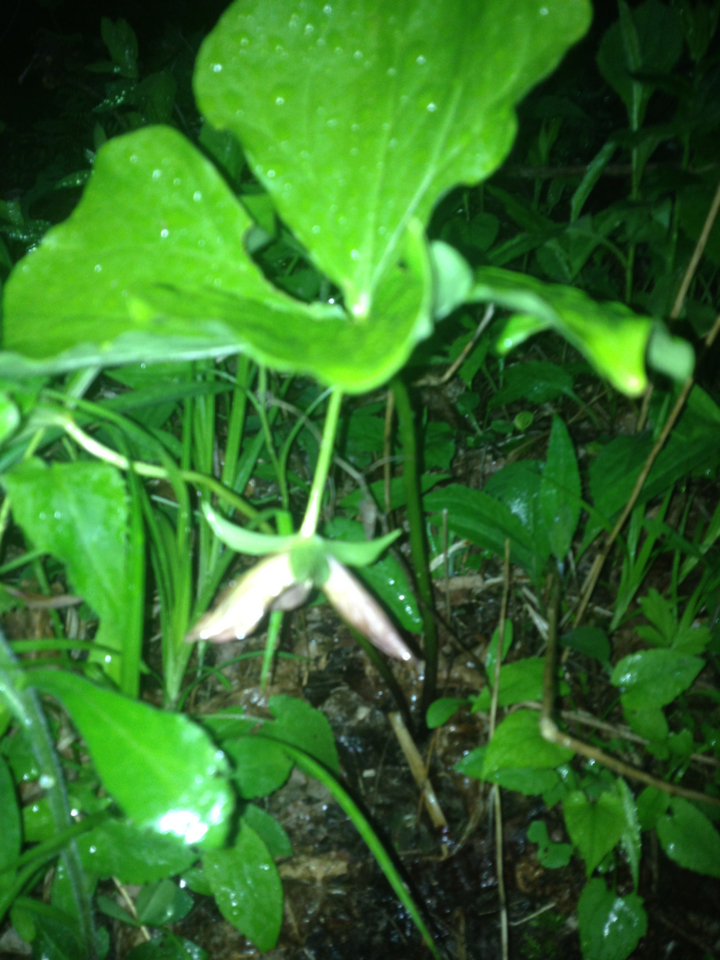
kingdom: Plantae
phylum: Tracheophyta
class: Liliopsida
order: Liliales
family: Melanthiaceae
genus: Trillium
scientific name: Trillium erectum
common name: Purple trillium
